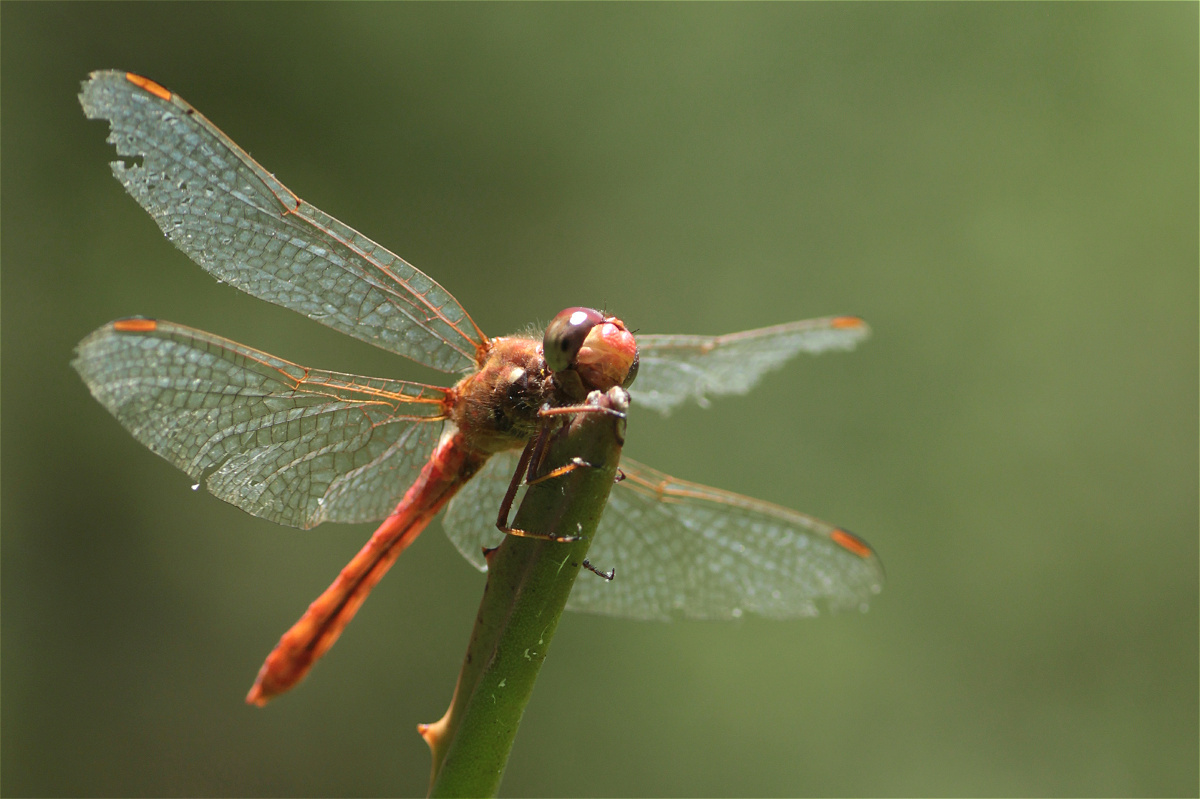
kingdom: Animalia
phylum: Arthropoda
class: Insecta
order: Odonata
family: Libellulidae
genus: Sympetrum
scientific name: Sympetrum gilvum
